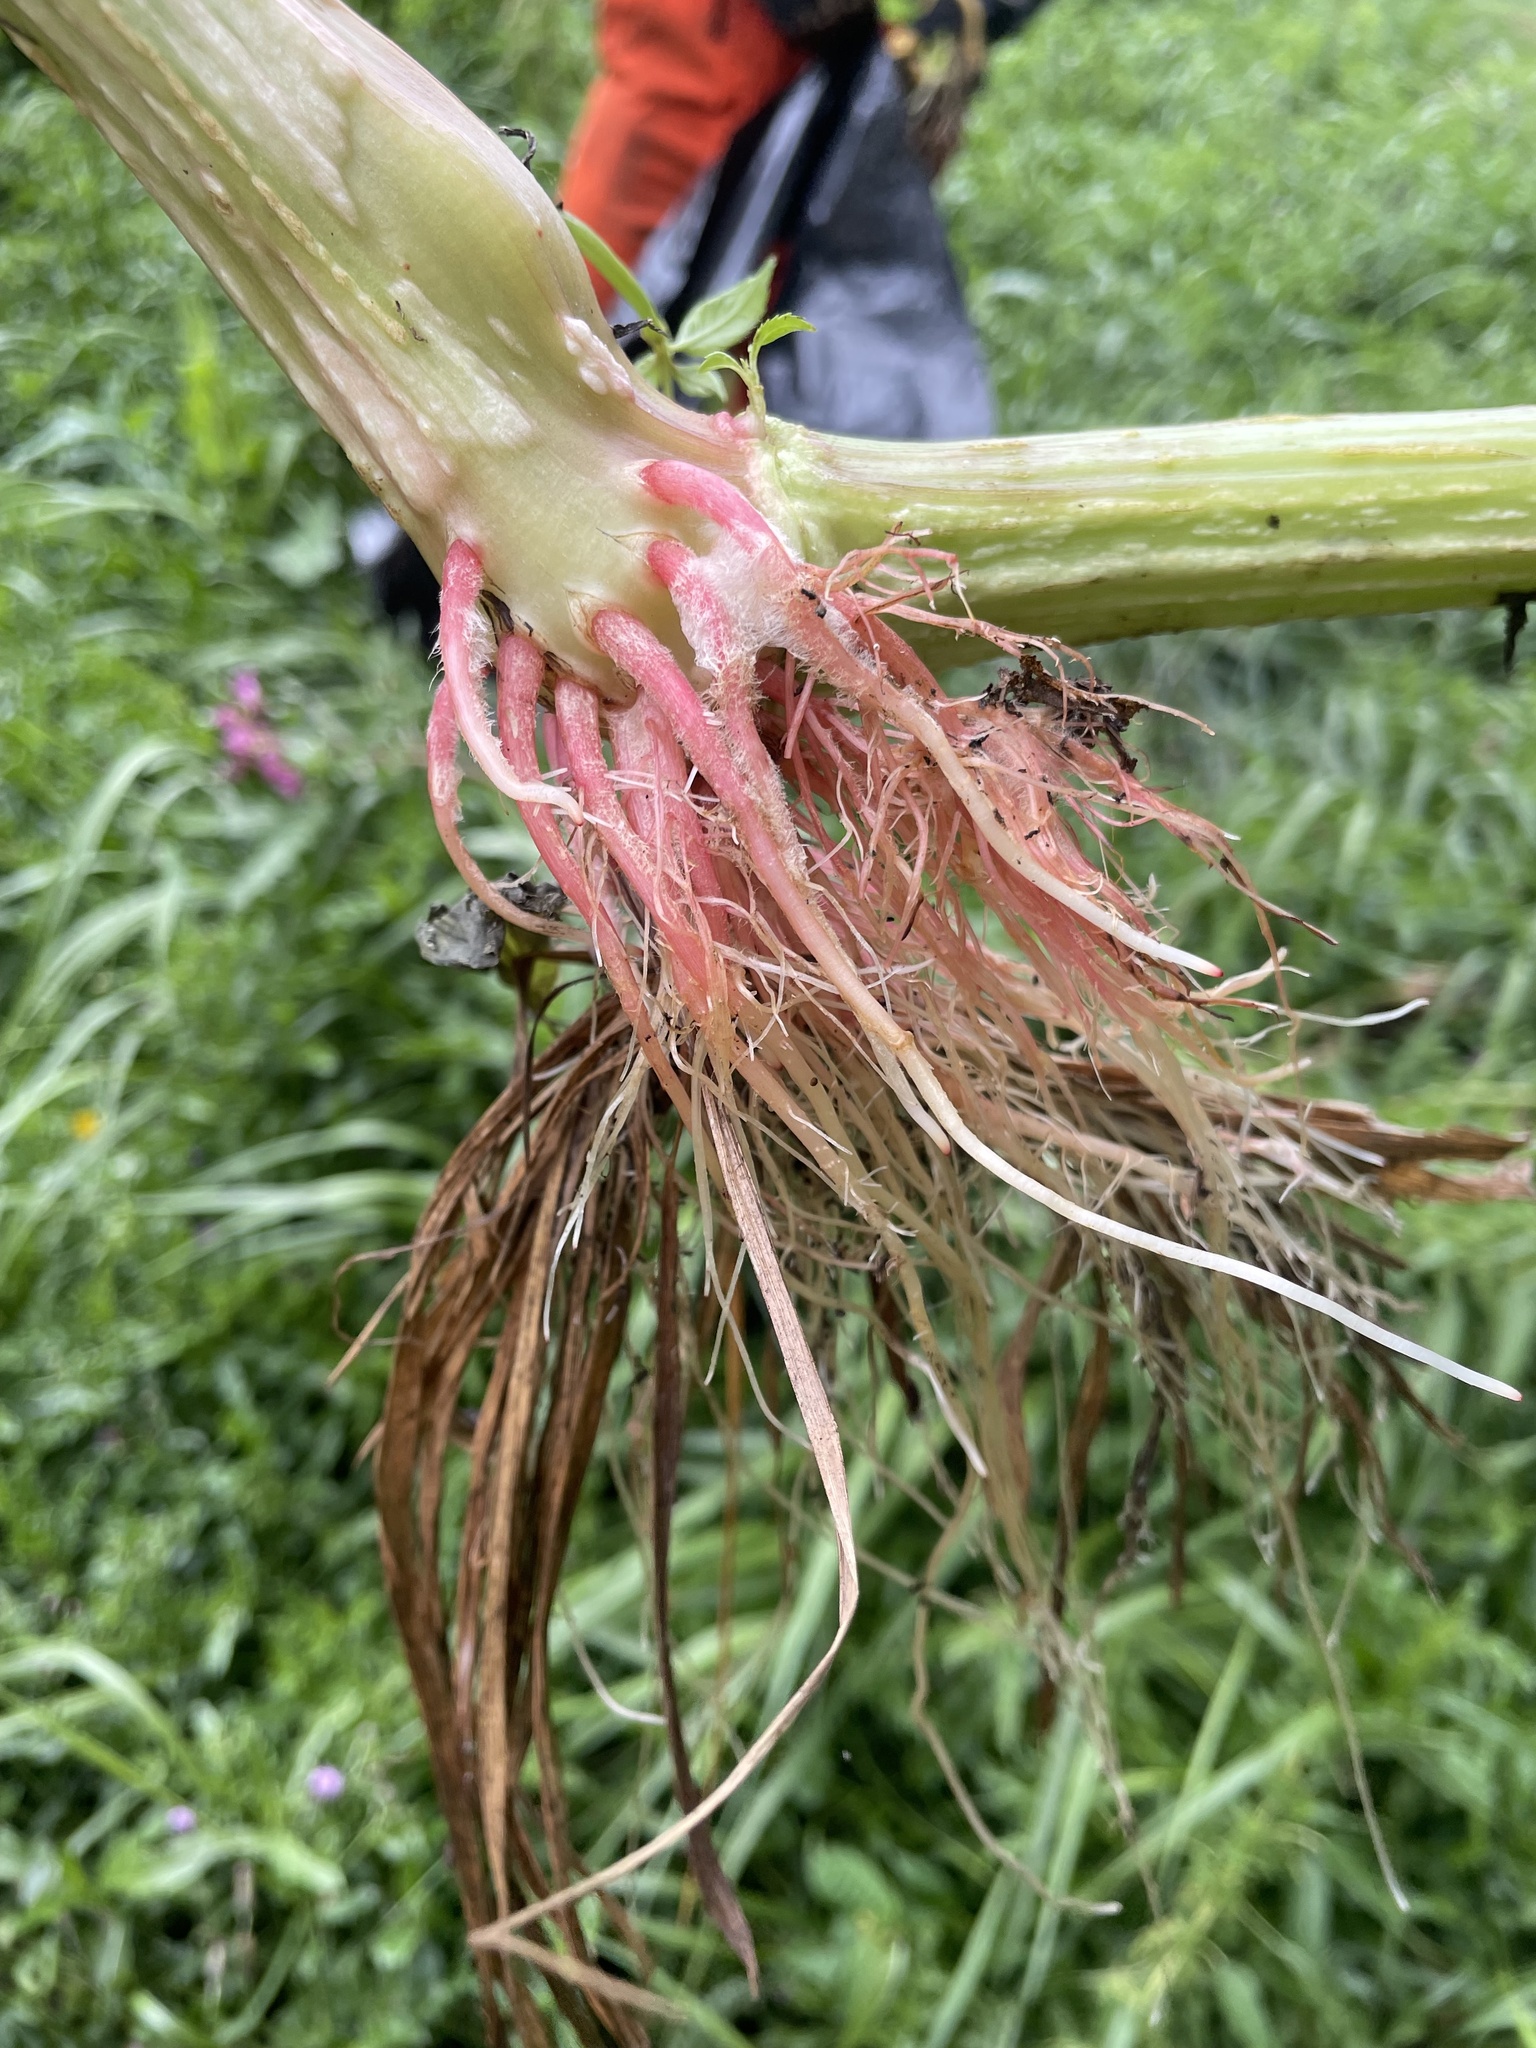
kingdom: Plantae
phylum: Tracheophyta
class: Magnoliopsida
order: Ericales
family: Balsaminaceae
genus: Impatiens
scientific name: Impatiens glandulifera
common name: Himalayan balsam
